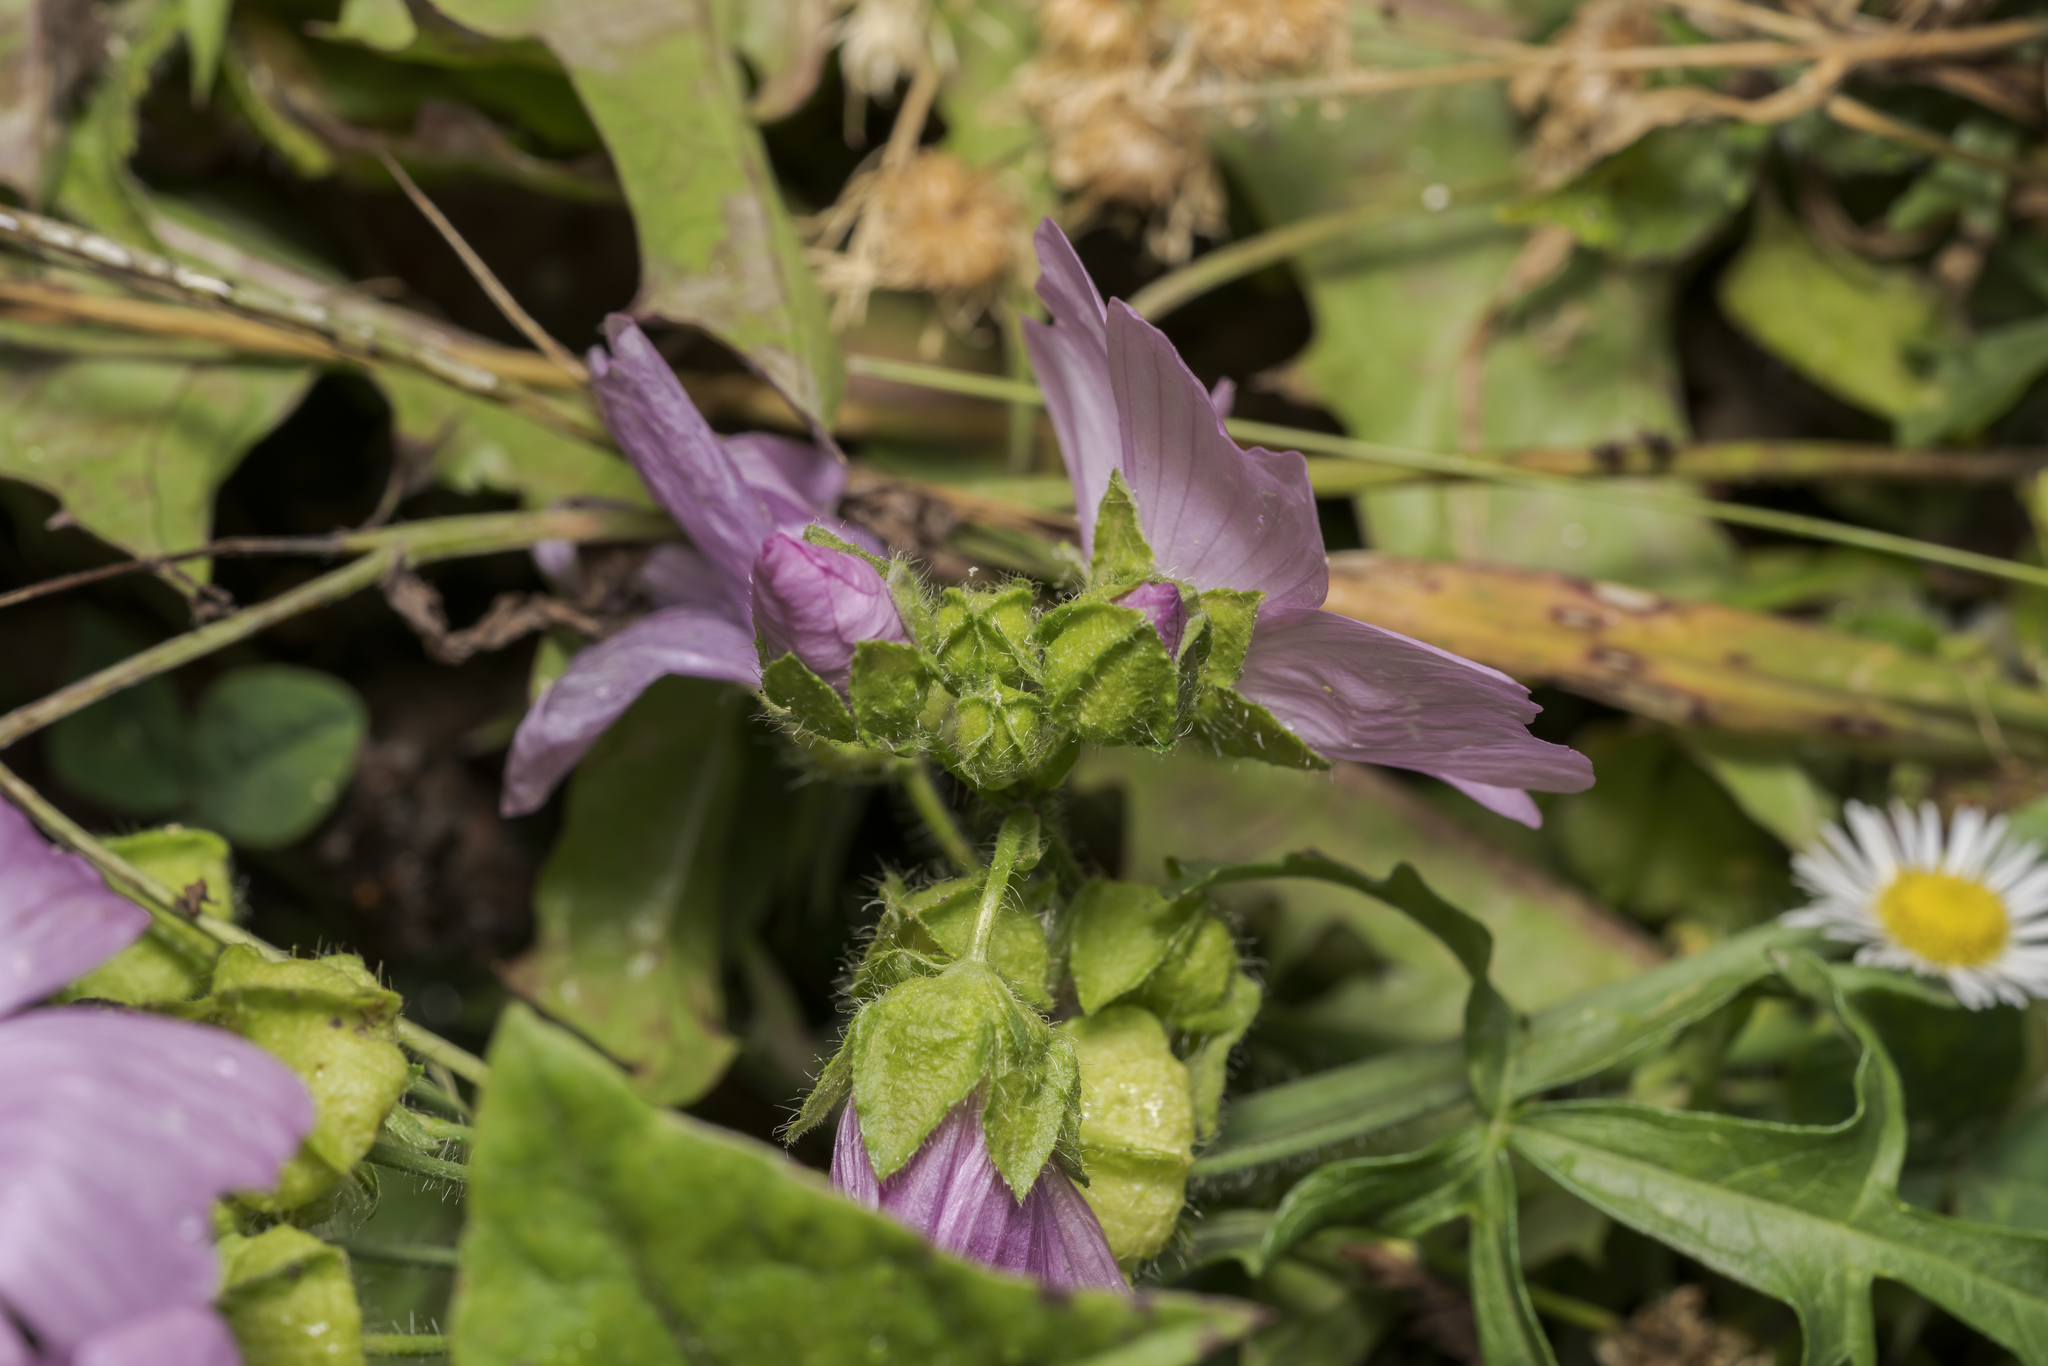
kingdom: Plantae
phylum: Tracheophyta
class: Magnoliopsida
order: Malvales
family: Malvaceae
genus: Malva
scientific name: Malva moschata
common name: Musk mallow
